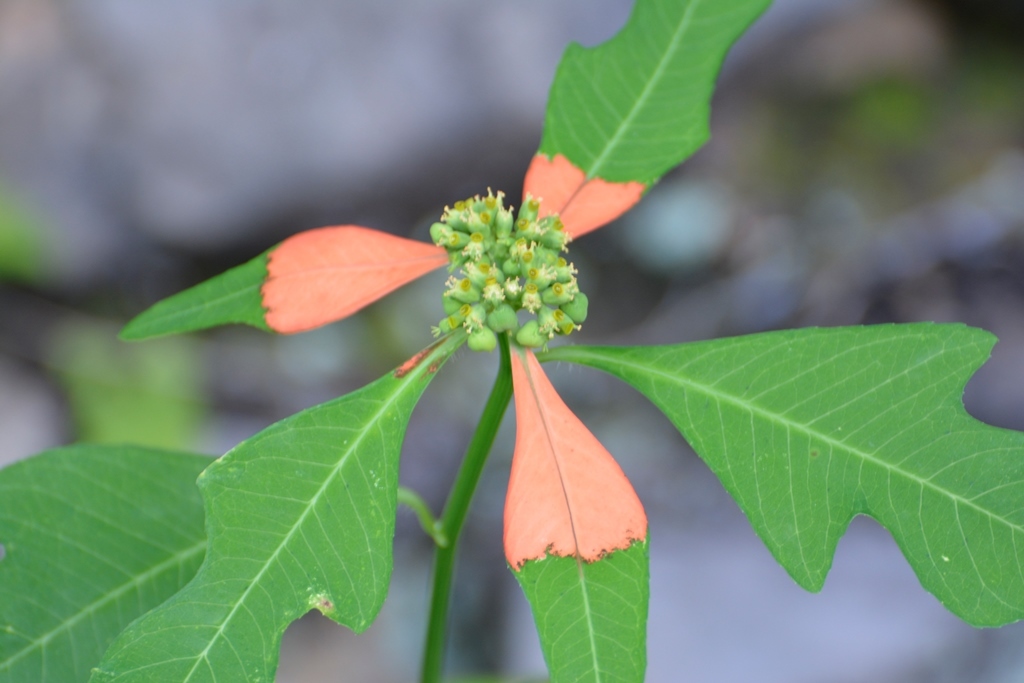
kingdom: Plantae
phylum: Tracheophyta
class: Magnoliopsida
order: Malpighiales
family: Euphorbiaceae
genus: Euphorbia
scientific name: Euphorbia heterophylla
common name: Mexican fireplant
